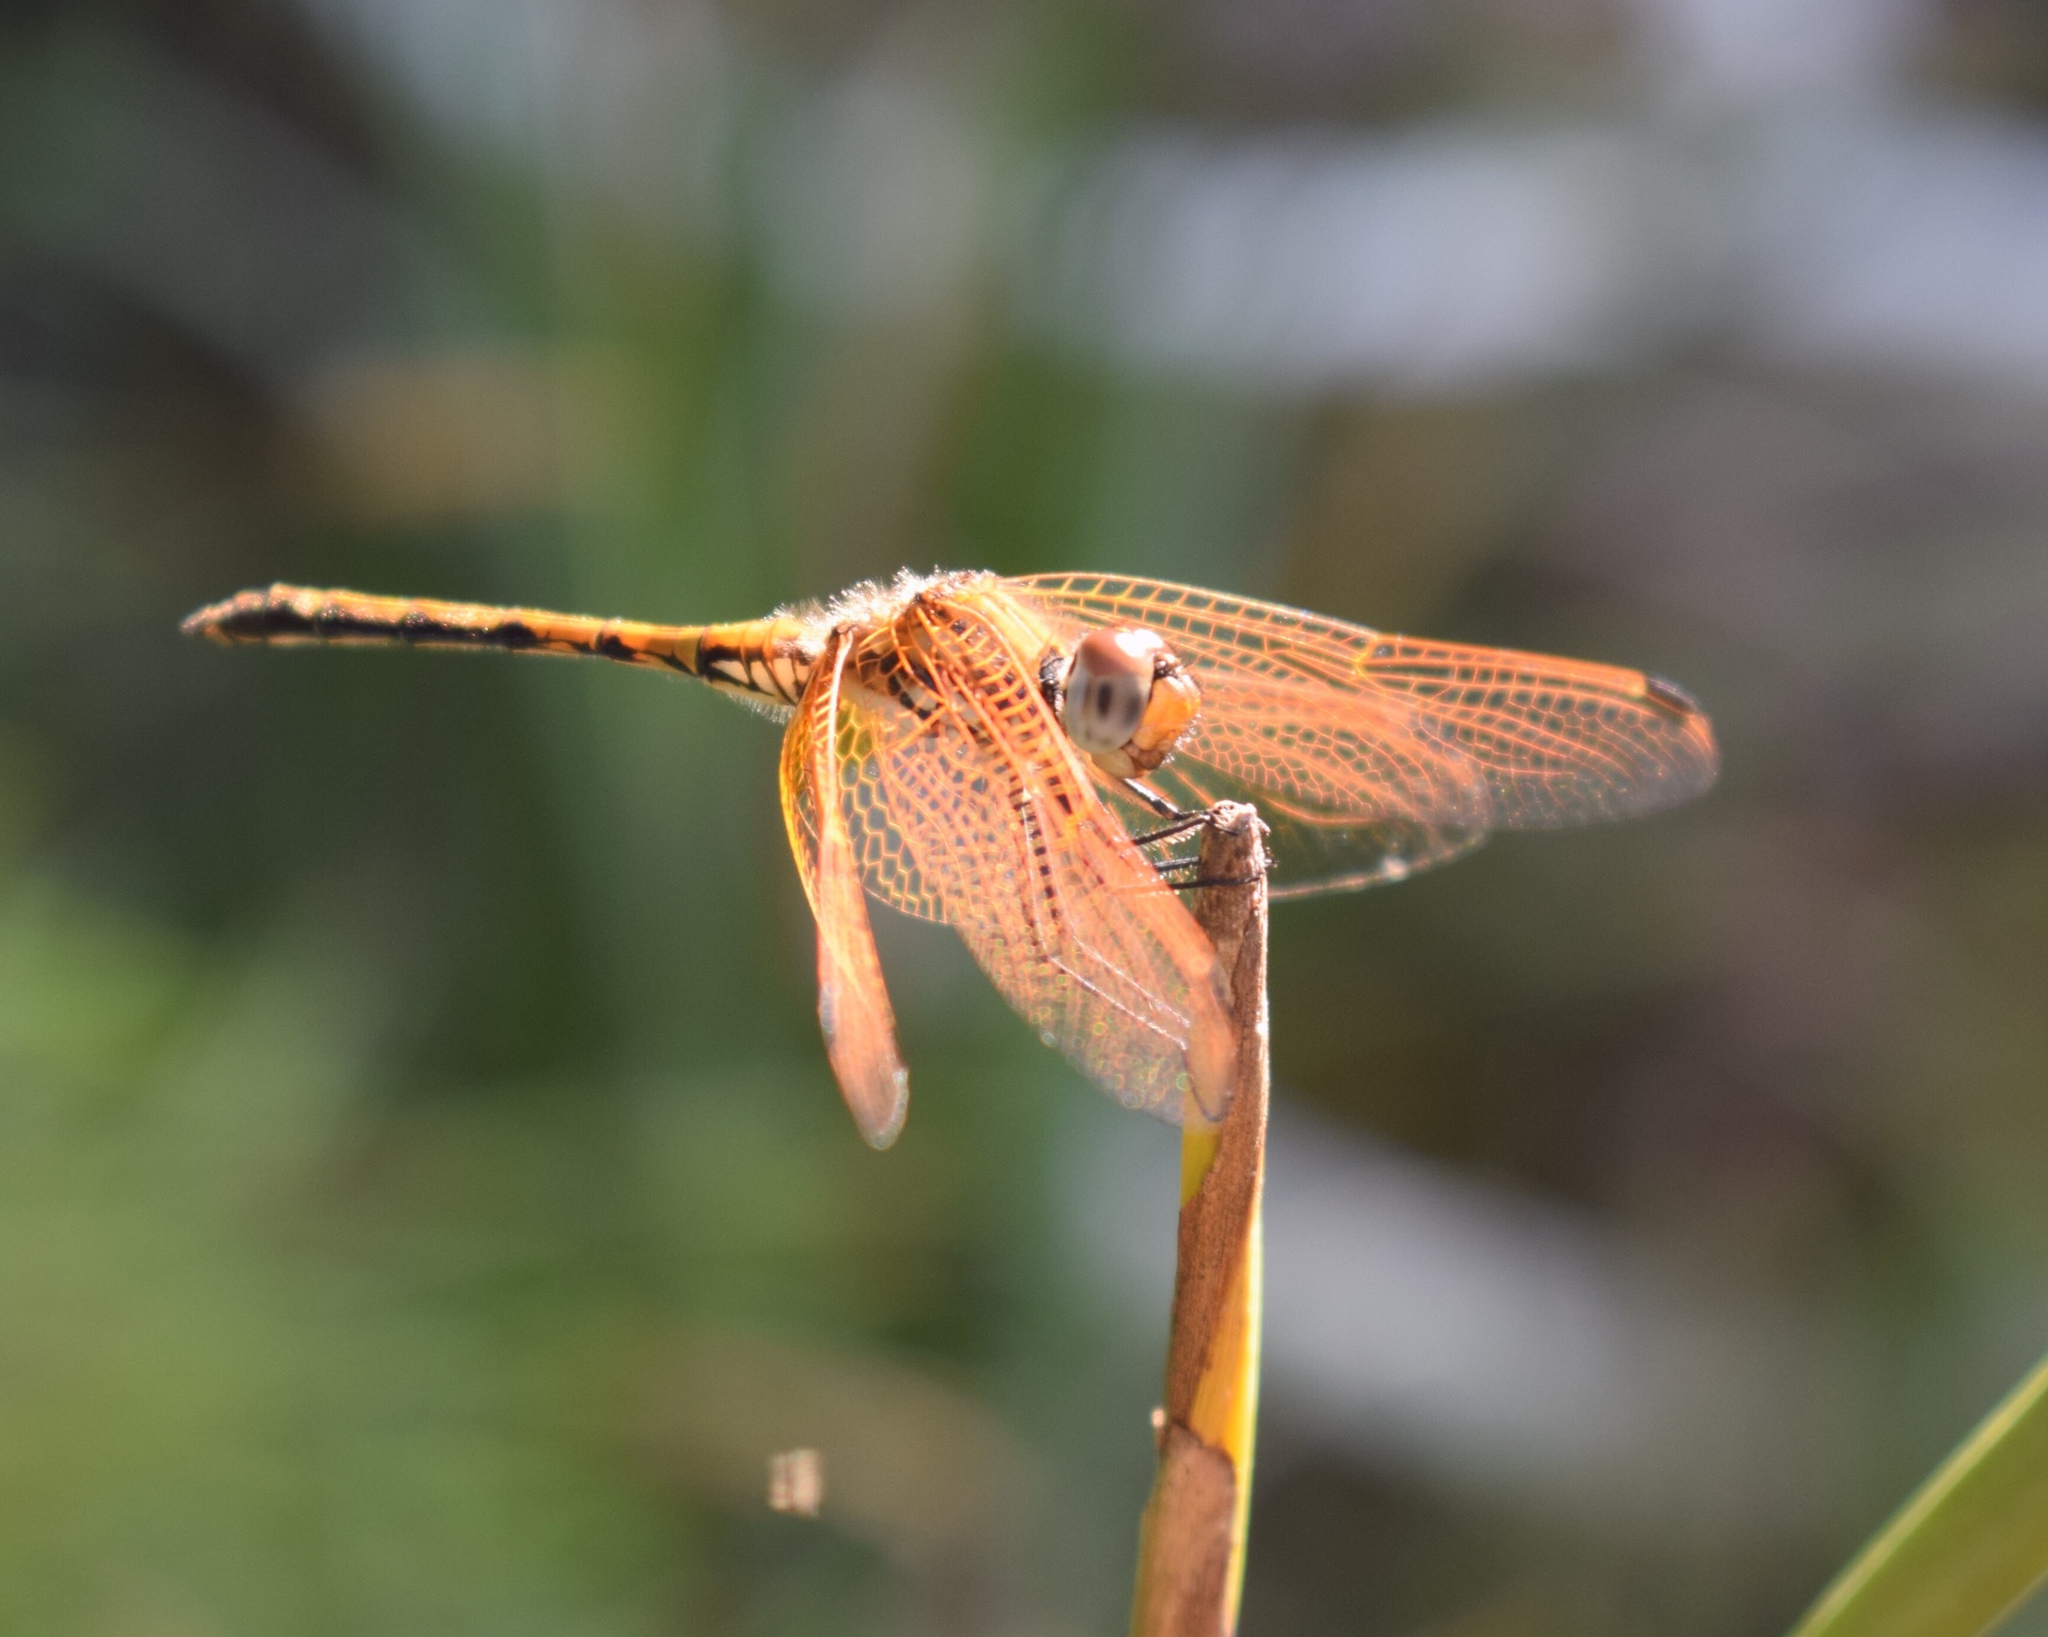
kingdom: Animalia
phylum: Arthropoda
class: Insecta
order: Odonata
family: Libellulidae
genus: Trithemis
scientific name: Trithemis arteriosa
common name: Red-veined dropwing
